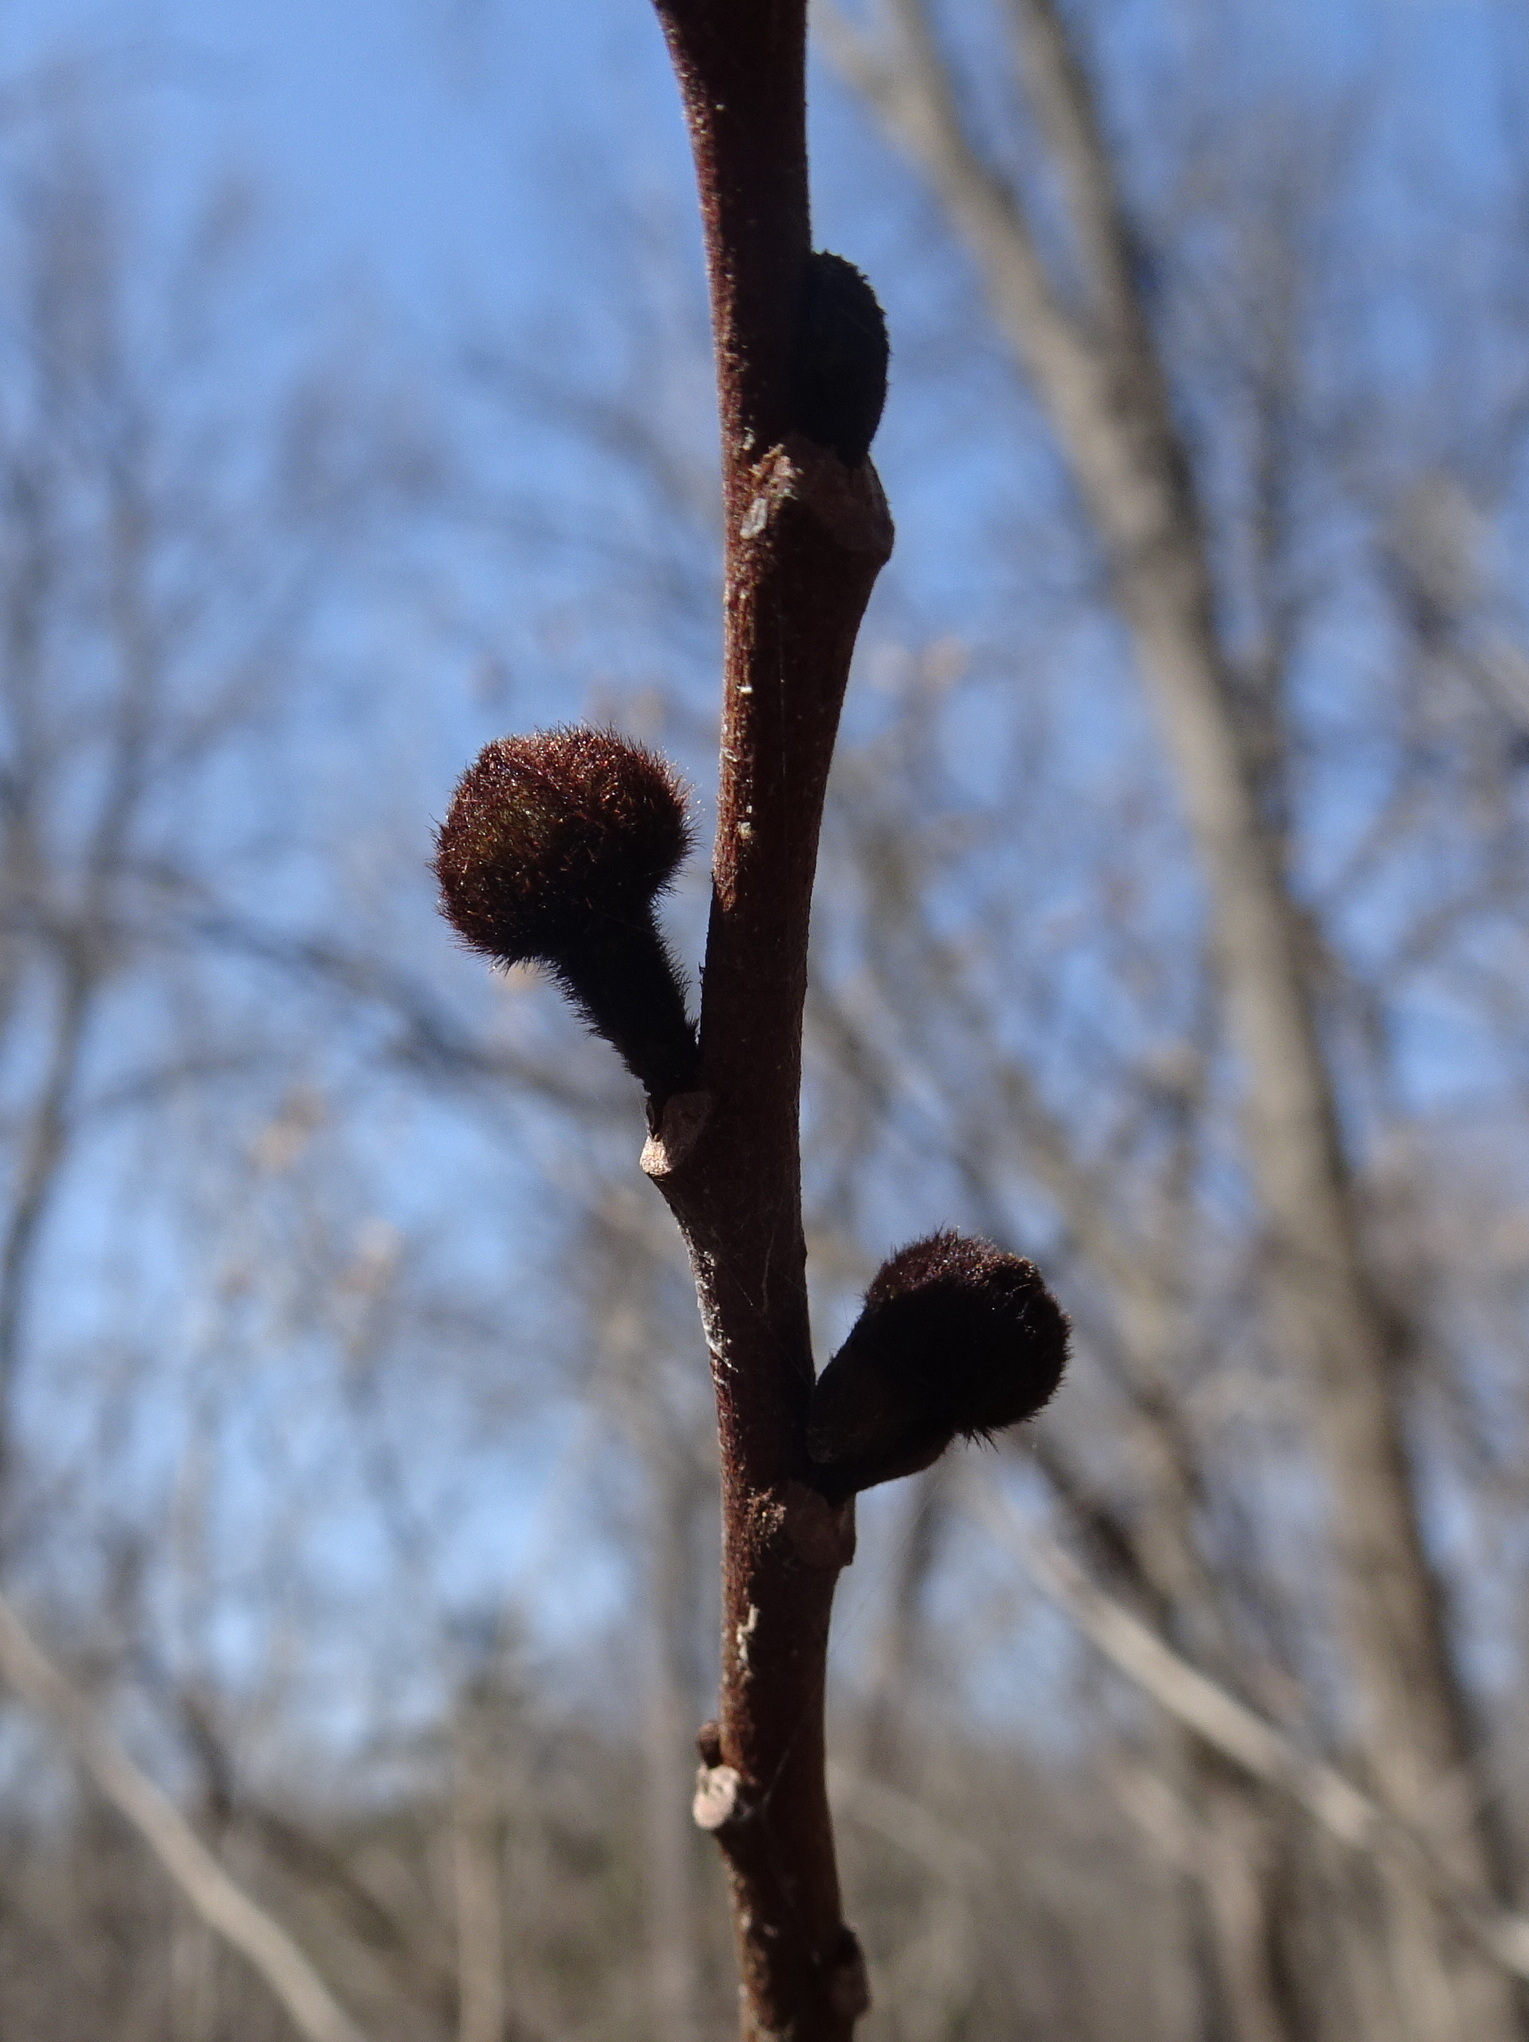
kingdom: Plantae
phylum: Tracheophyta
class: Magnoliopsida
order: Magnoliales
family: Annonaceae
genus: Asimina
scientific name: Asimina triloba
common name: Dog-banana
